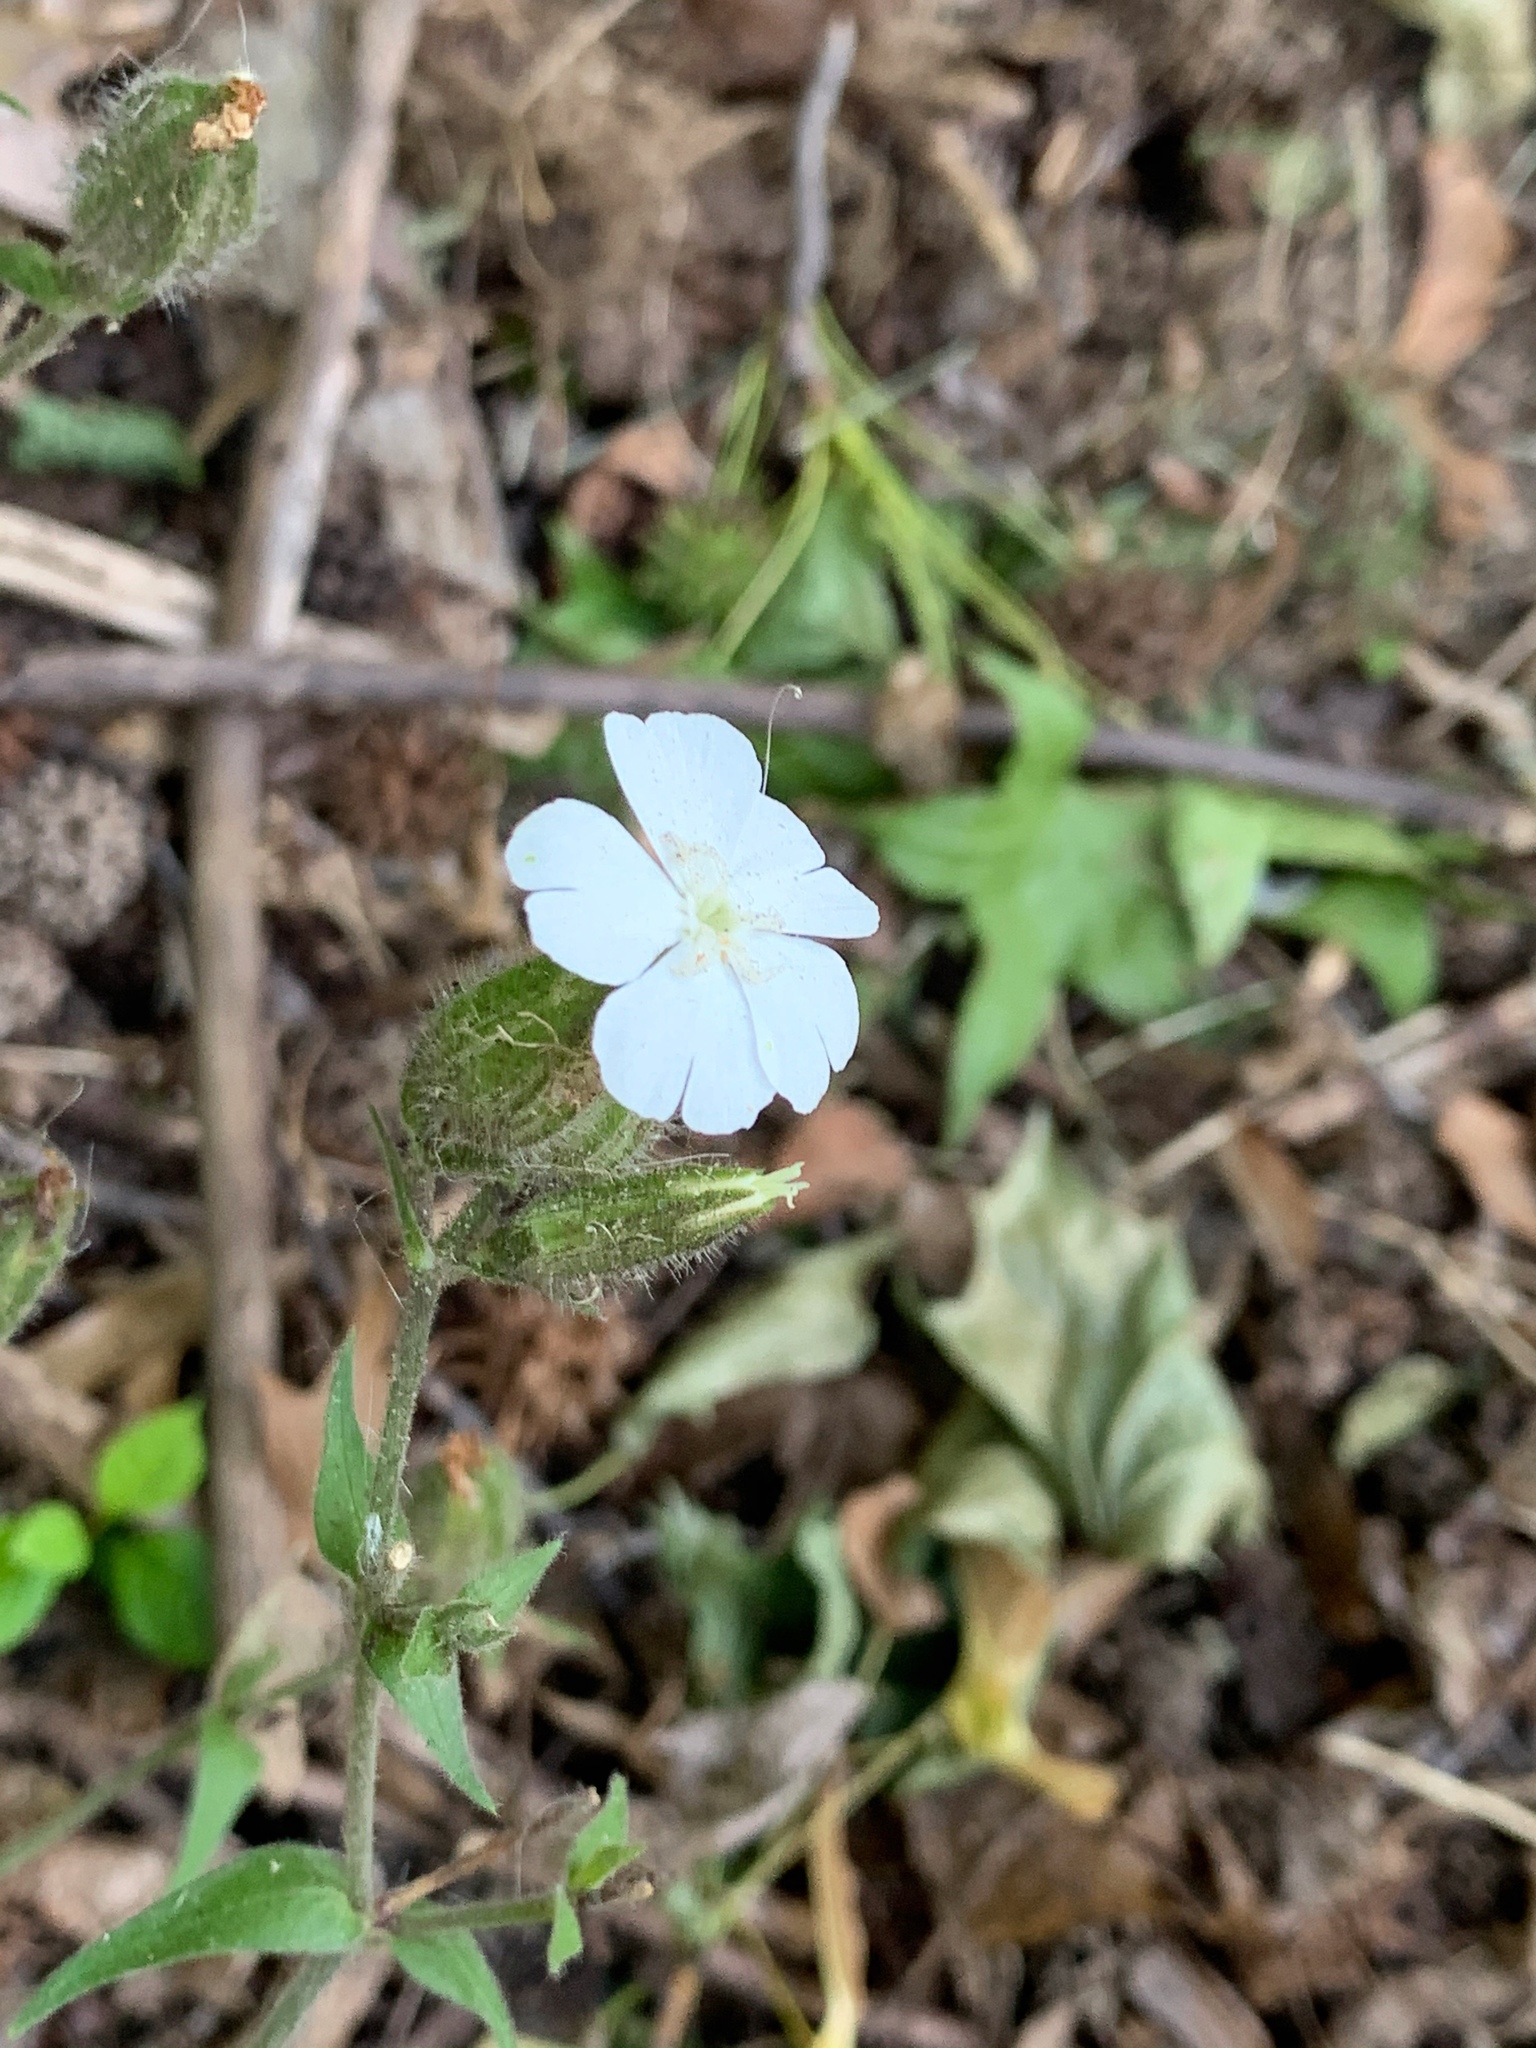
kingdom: Plantae
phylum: Tracheophyta
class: Magnoliopsida
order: Caryophyllales
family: Caryophyllaceae
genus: Silene
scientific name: Silene latifolia
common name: White campion
